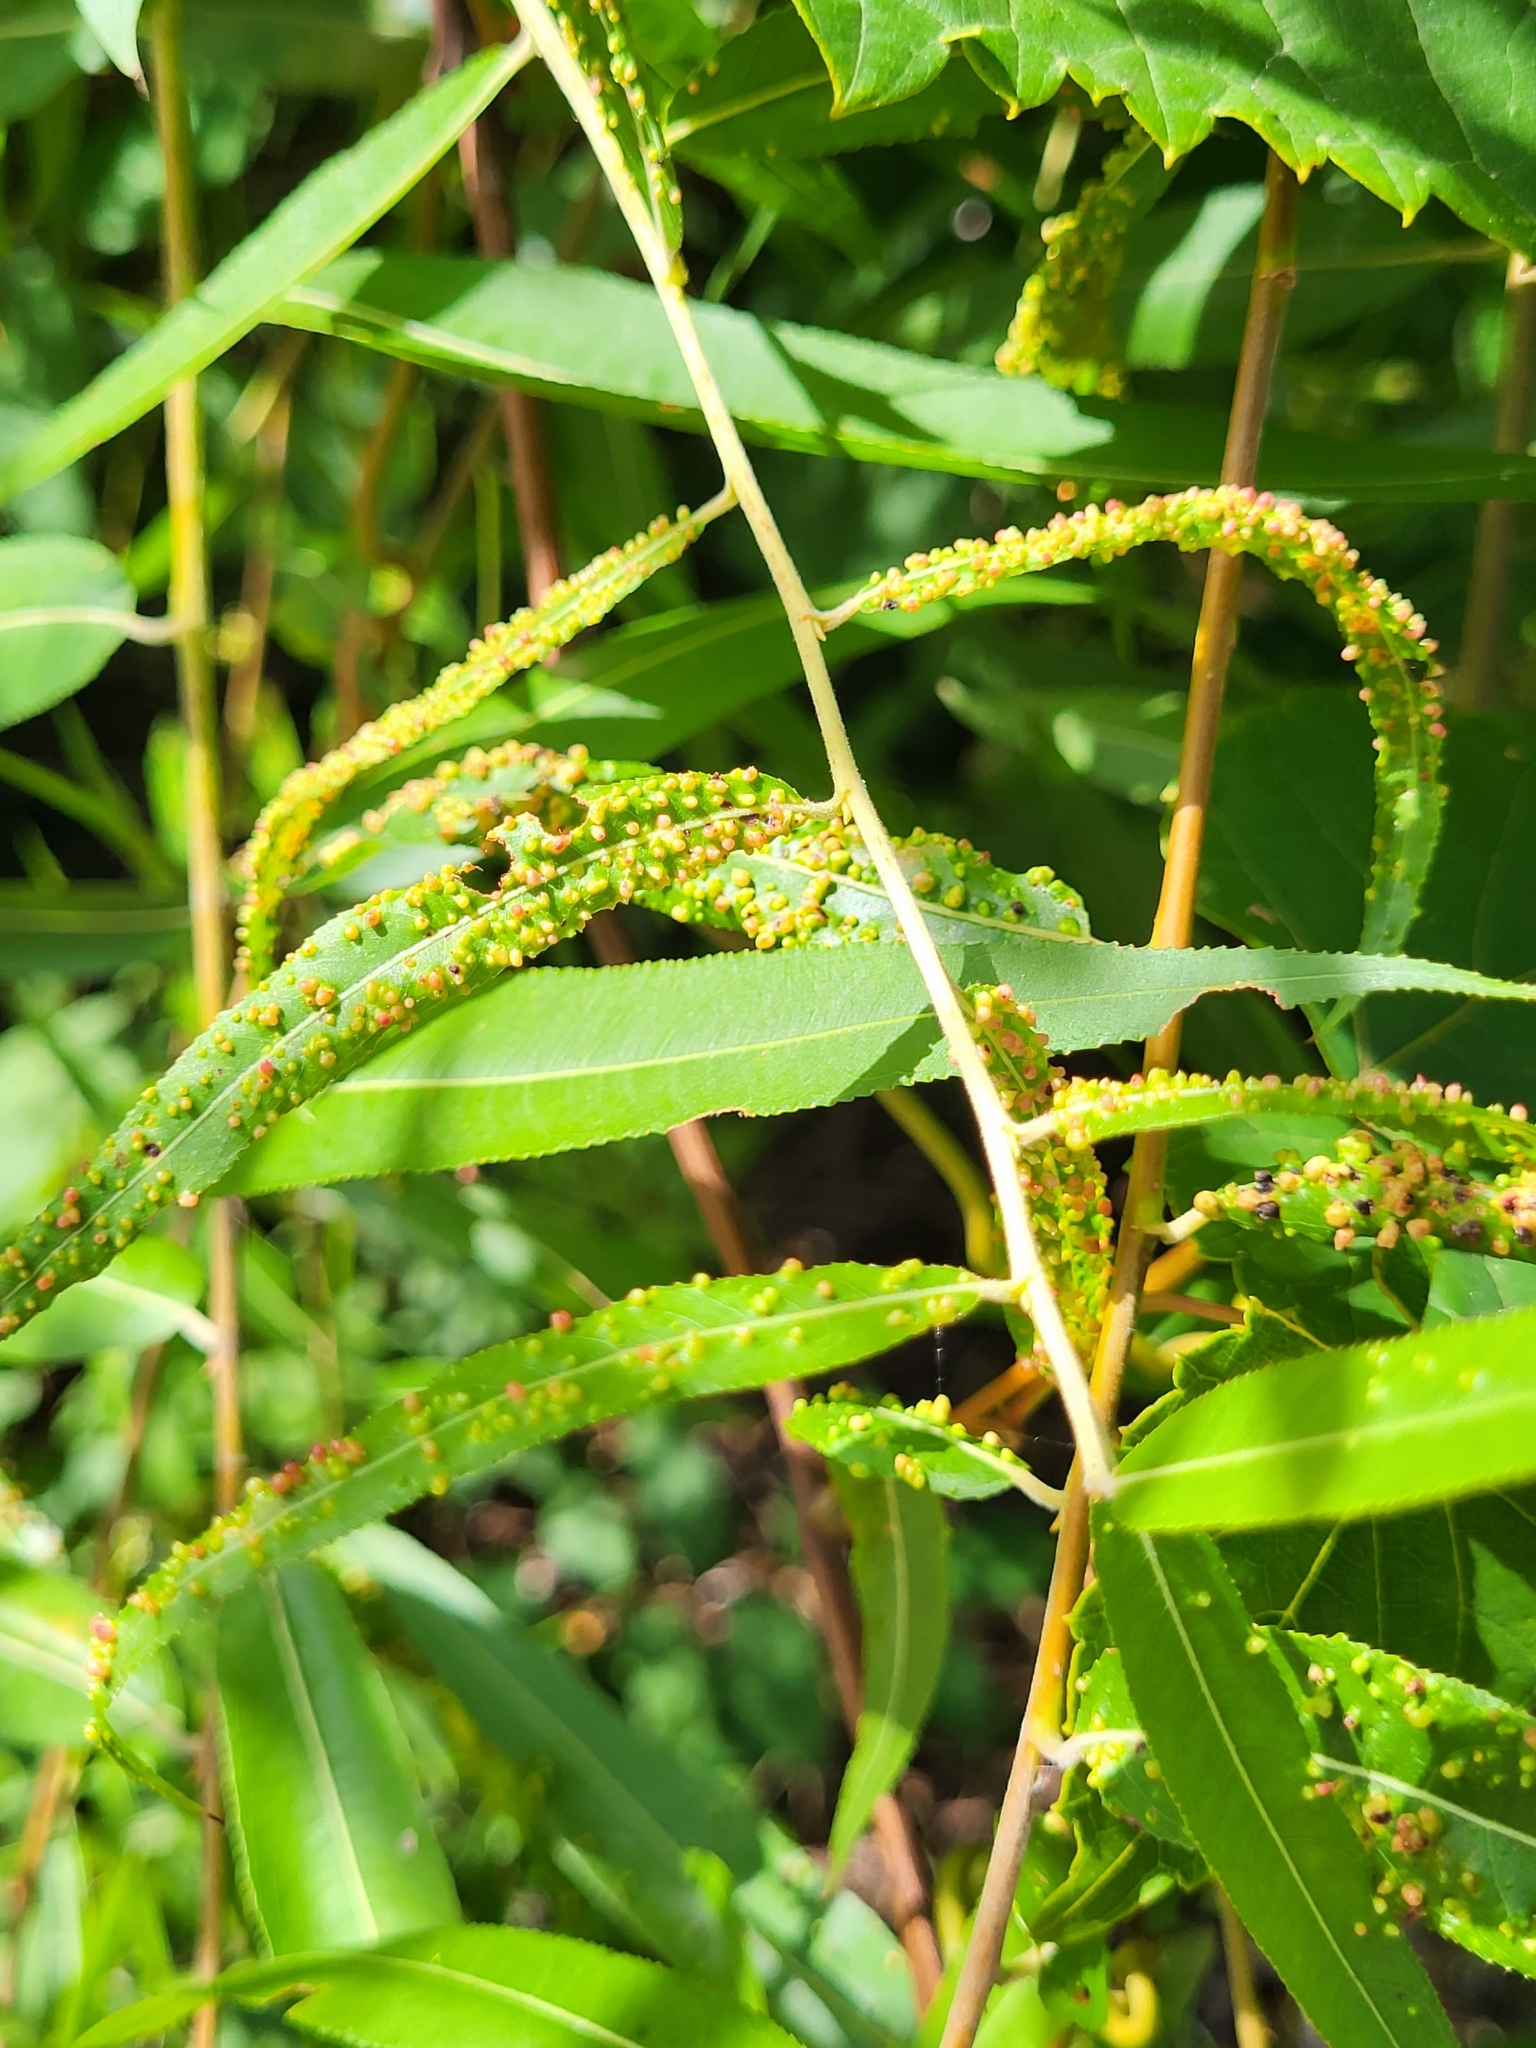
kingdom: Animalia
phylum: Arthropoda
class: Arachnida
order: Trombidiformes
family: Eriophyidae
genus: Aculus
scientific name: Aculus tetanothrix
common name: Willow bead gall mite
